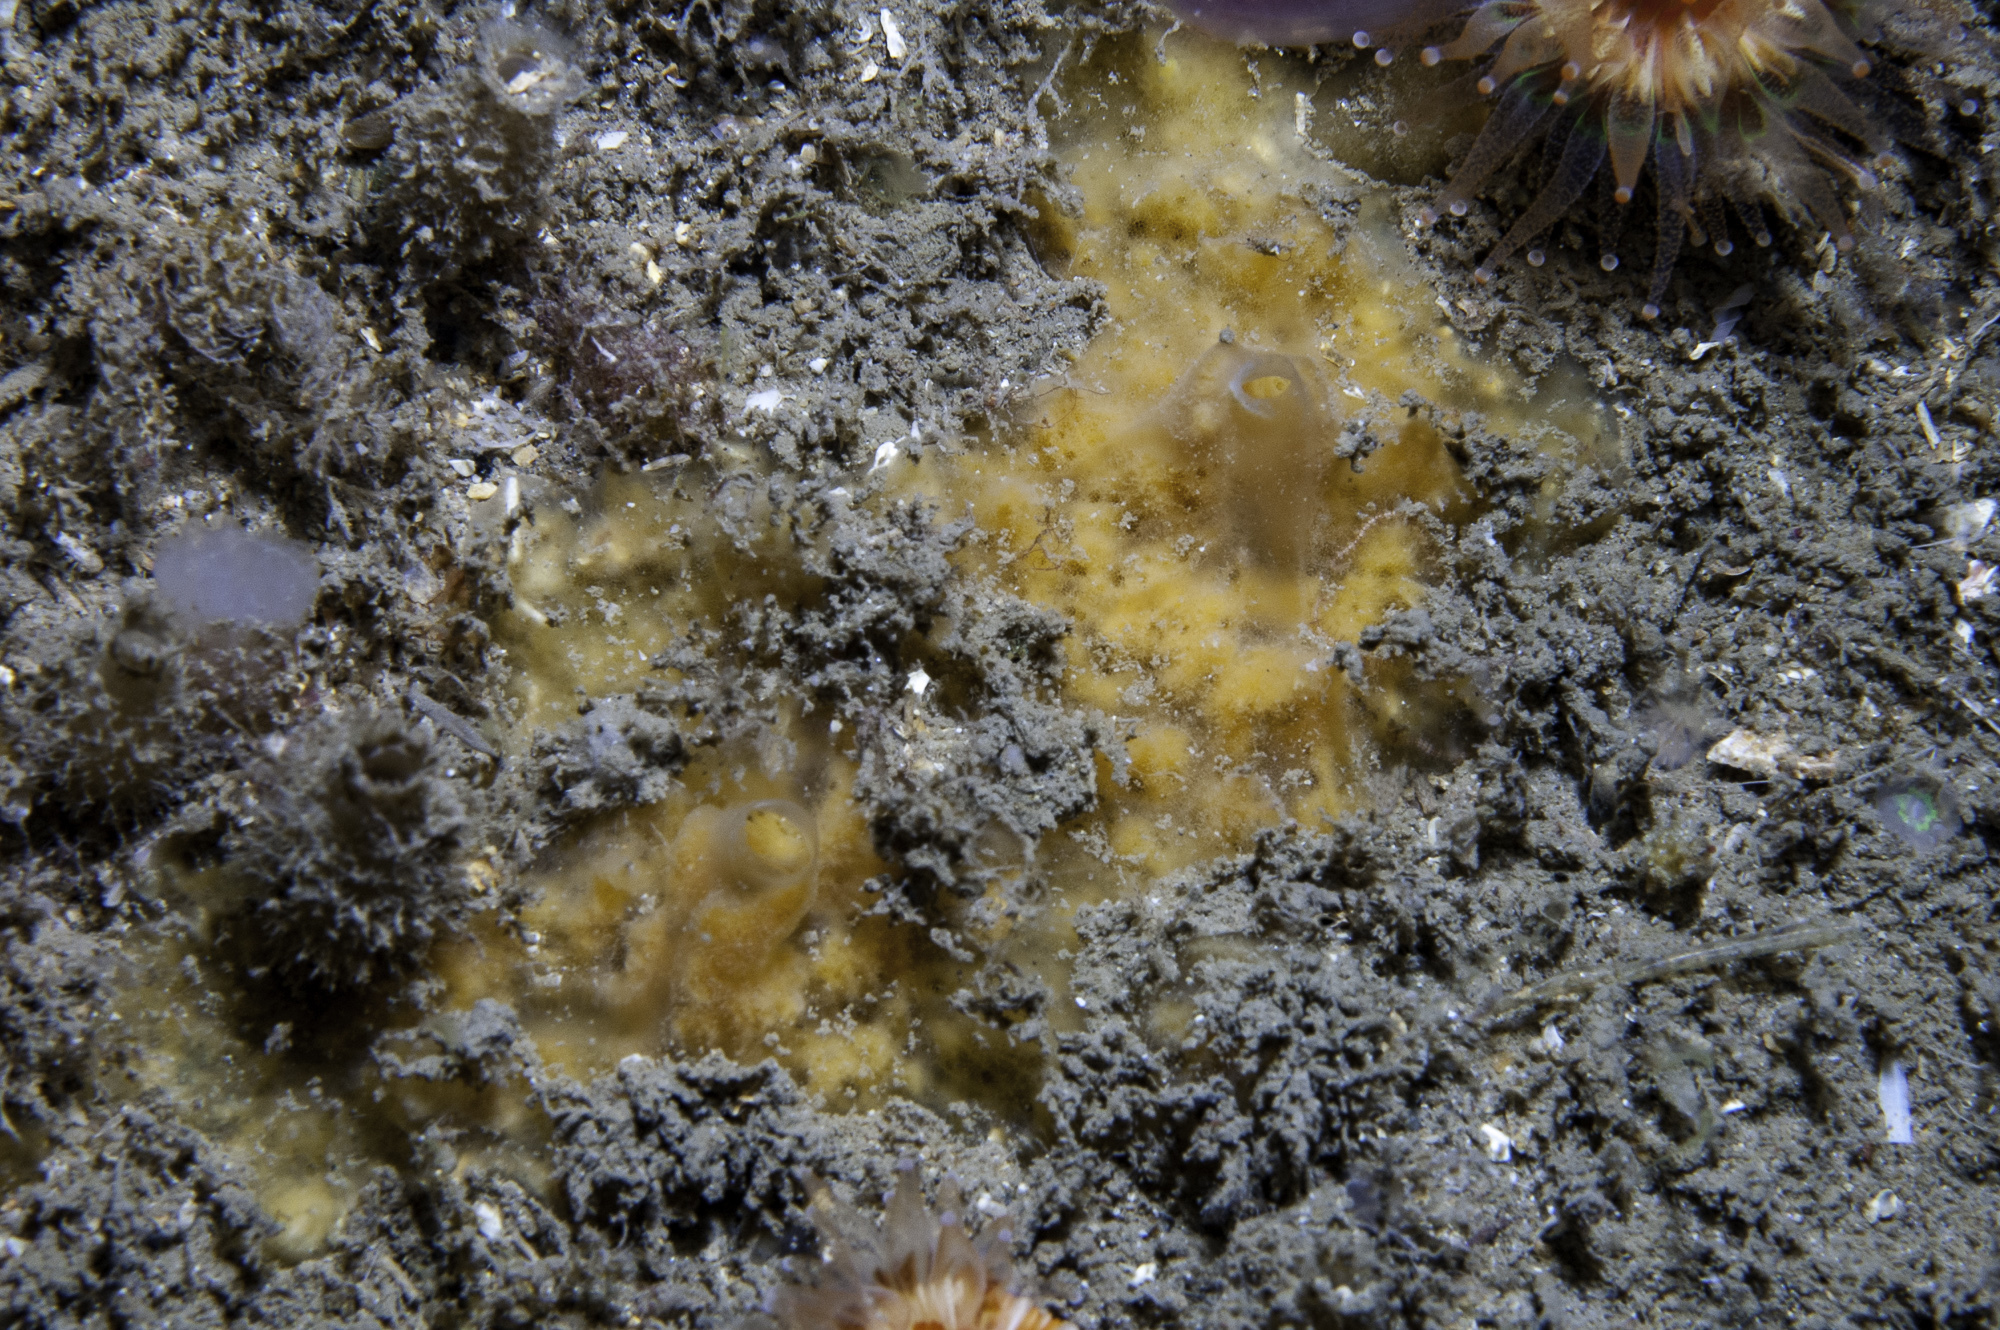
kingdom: Animalia
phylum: Porifera
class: Demospongiae
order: Poecilosclerida
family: Myxillidae
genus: Myxilla
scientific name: Myxilla rosacea
